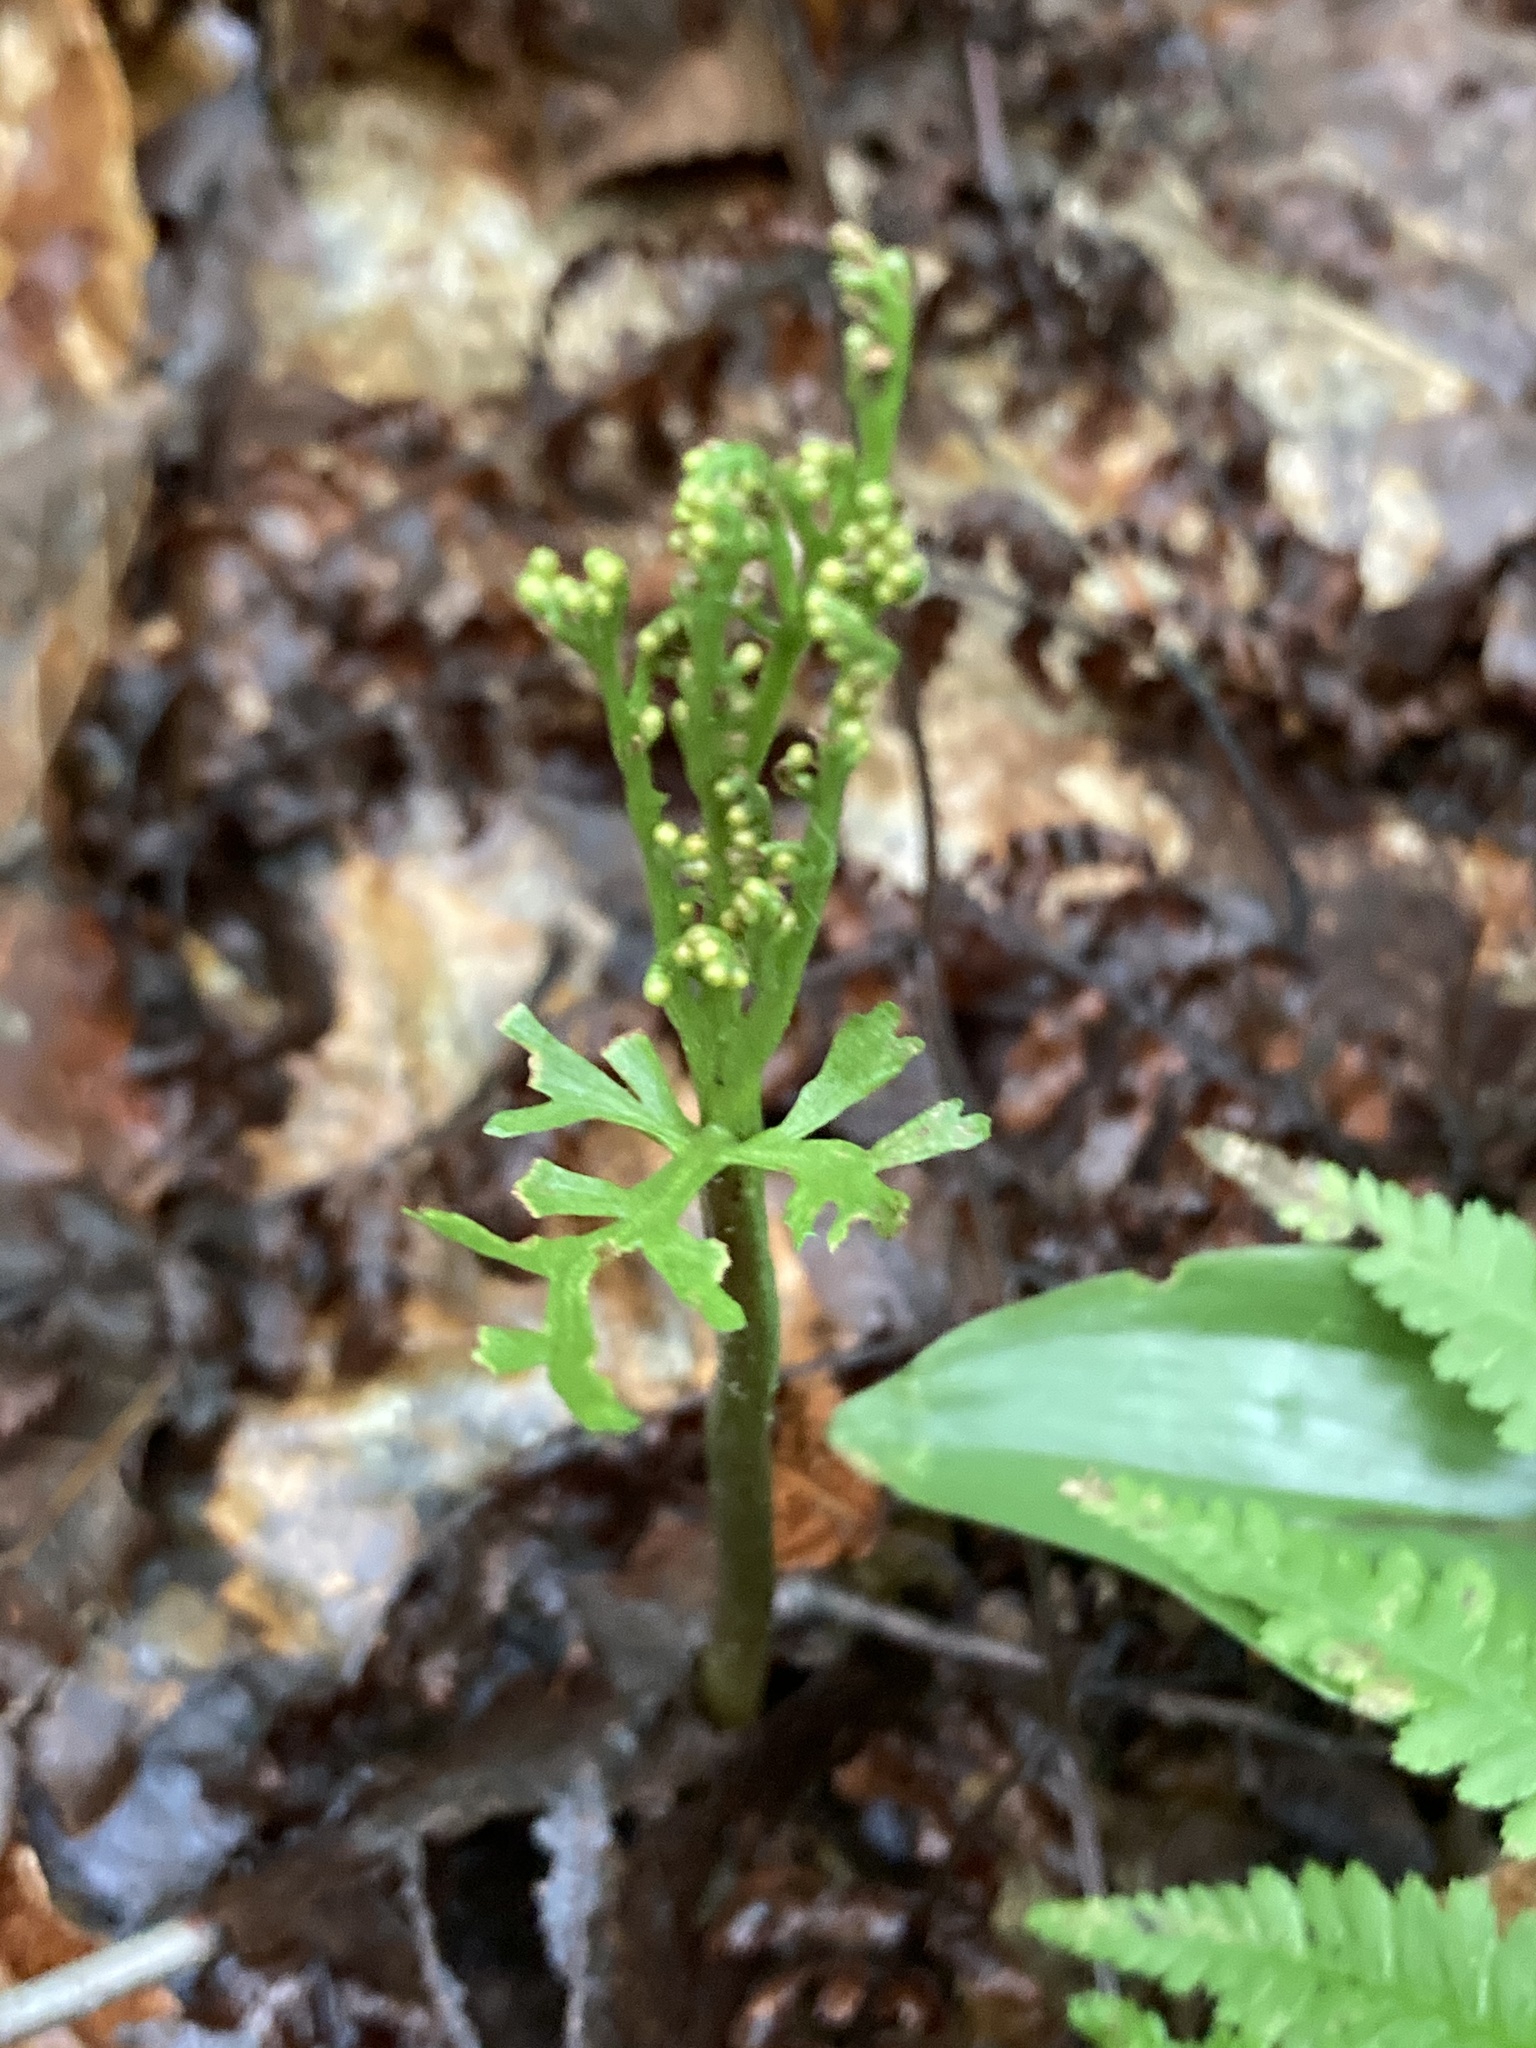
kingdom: Plantae
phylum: Tracheophyta
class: Polypodiopsida
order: Ophioglossales
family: Ophioglossaceae
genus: Botrychium
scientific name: Botrychium angustisegmentum
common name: Narrow triangle moonwort
